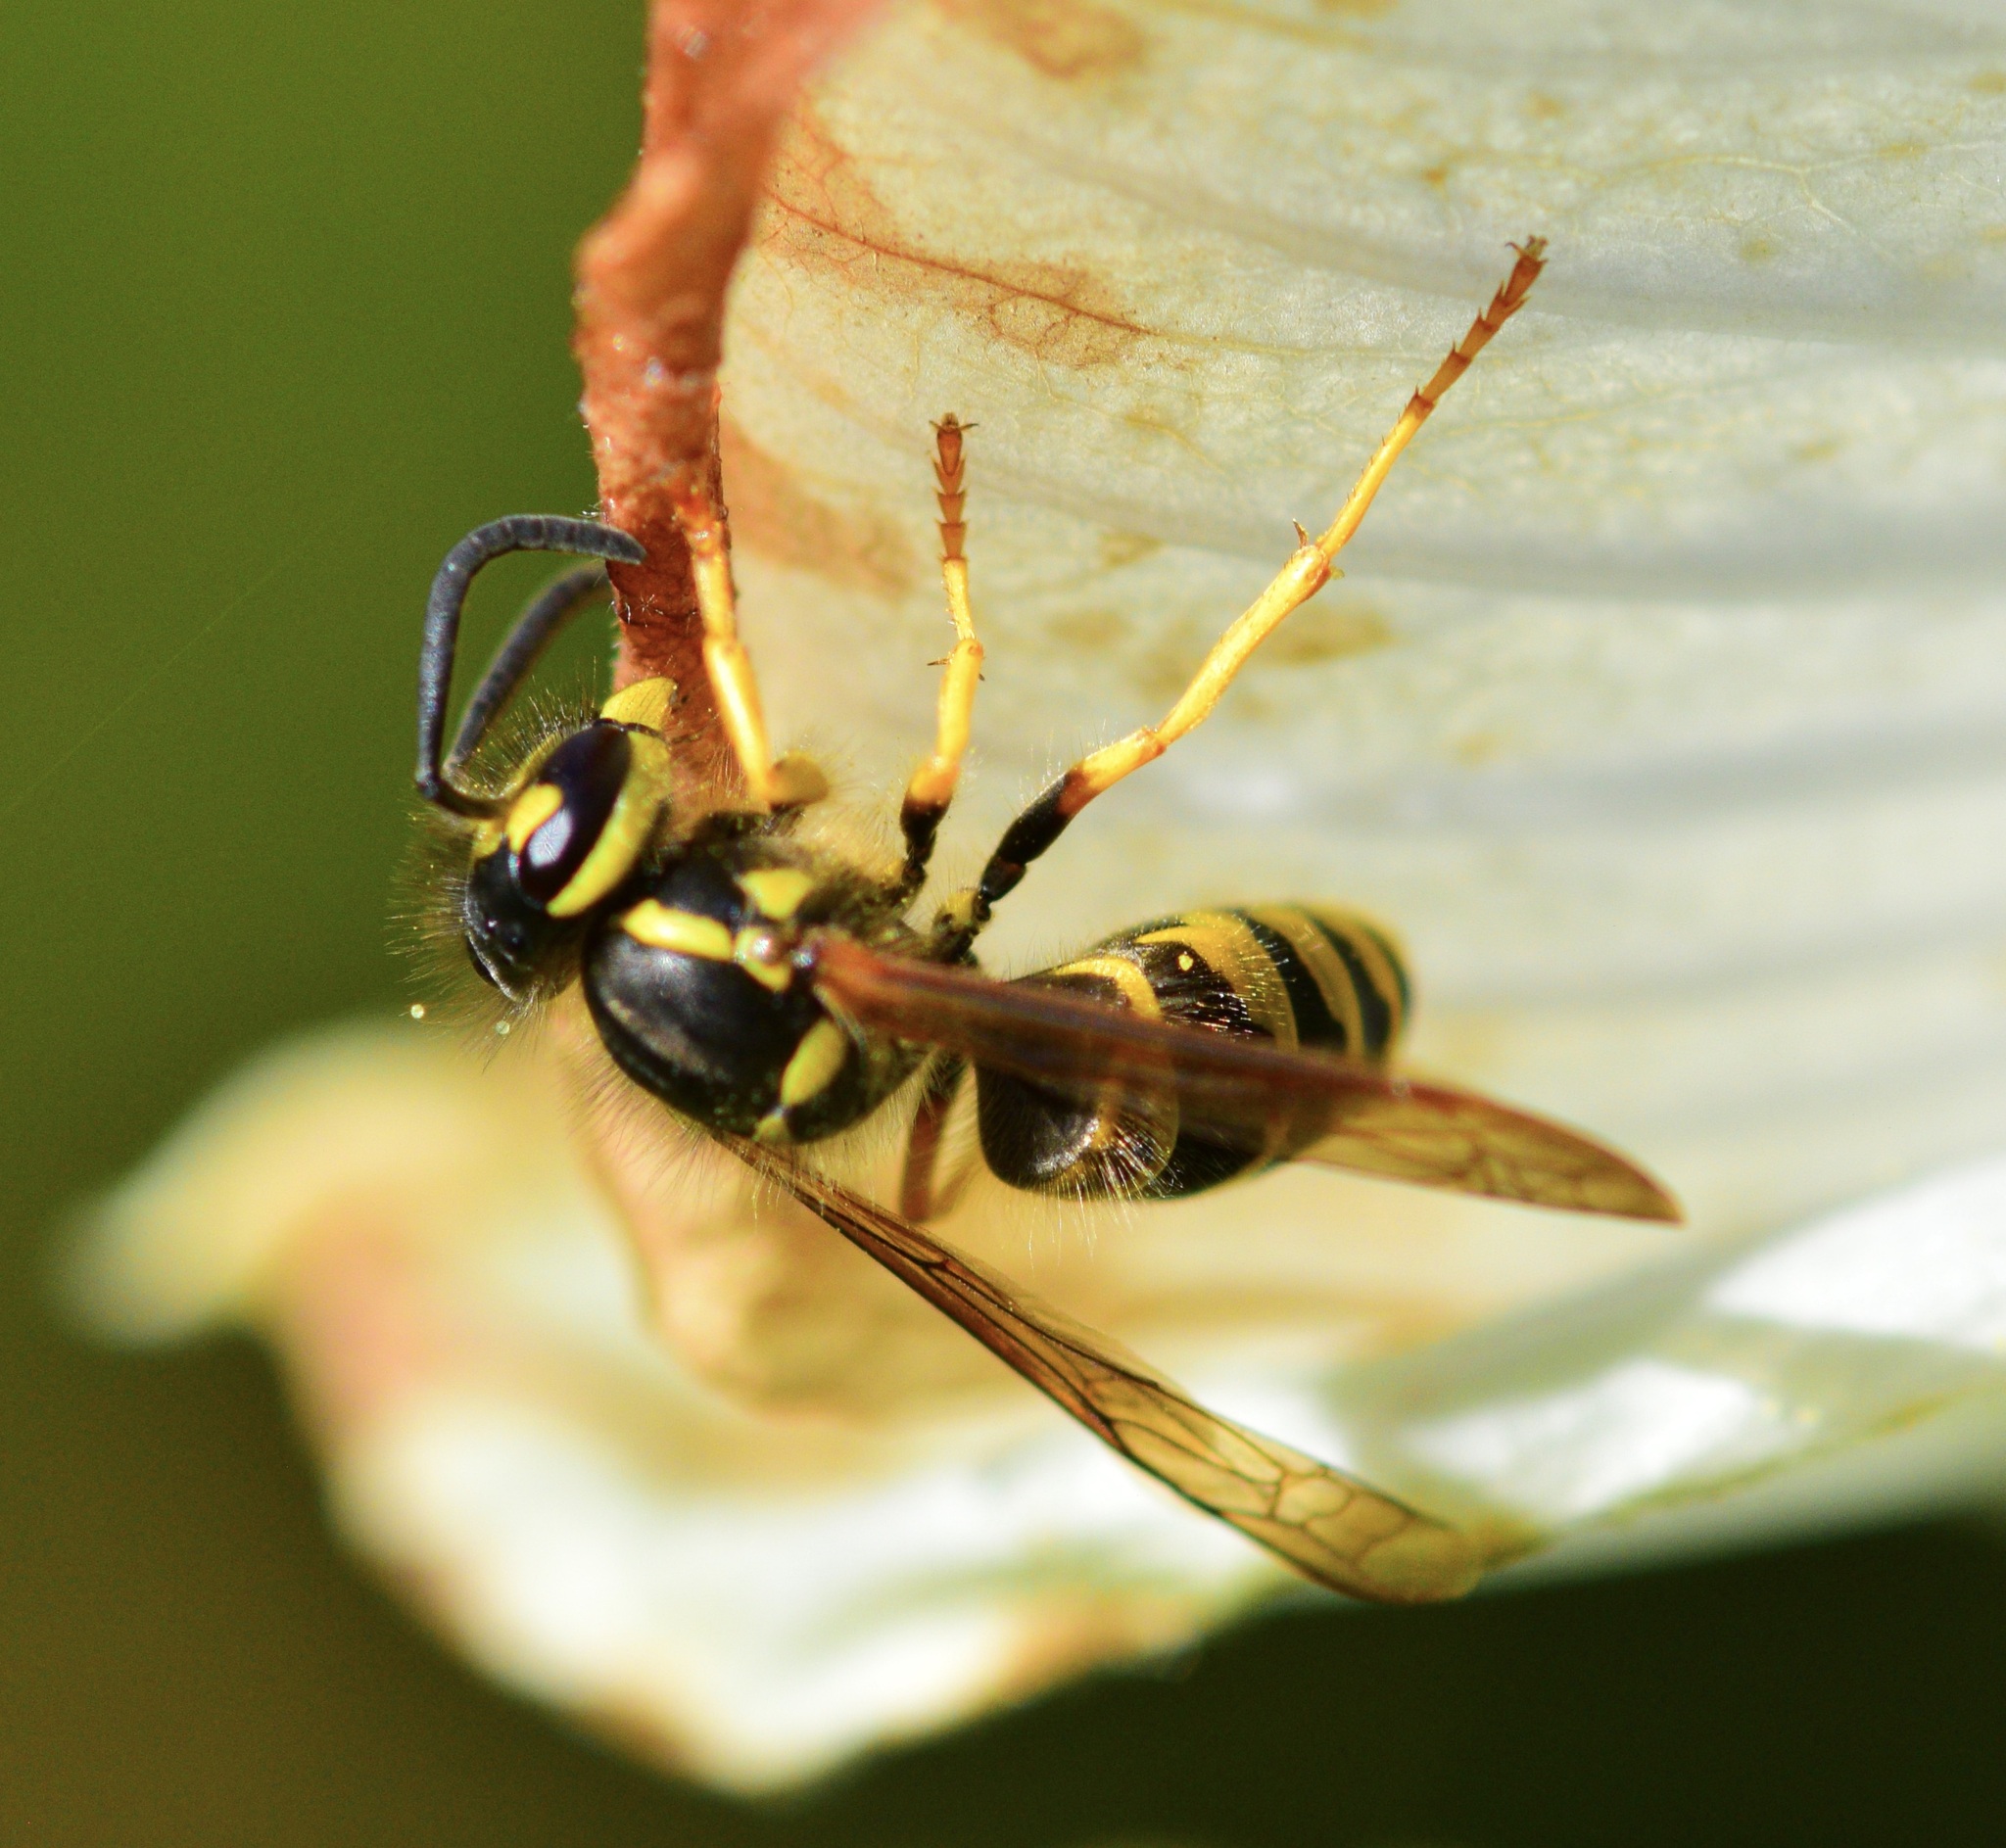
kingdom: Animalia
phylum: Arthropoda
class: Insecta
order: Hymenoptera
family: Vespidae
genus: Vespula
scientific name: Vespula maculifrons
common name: Eastern yellowjacket
